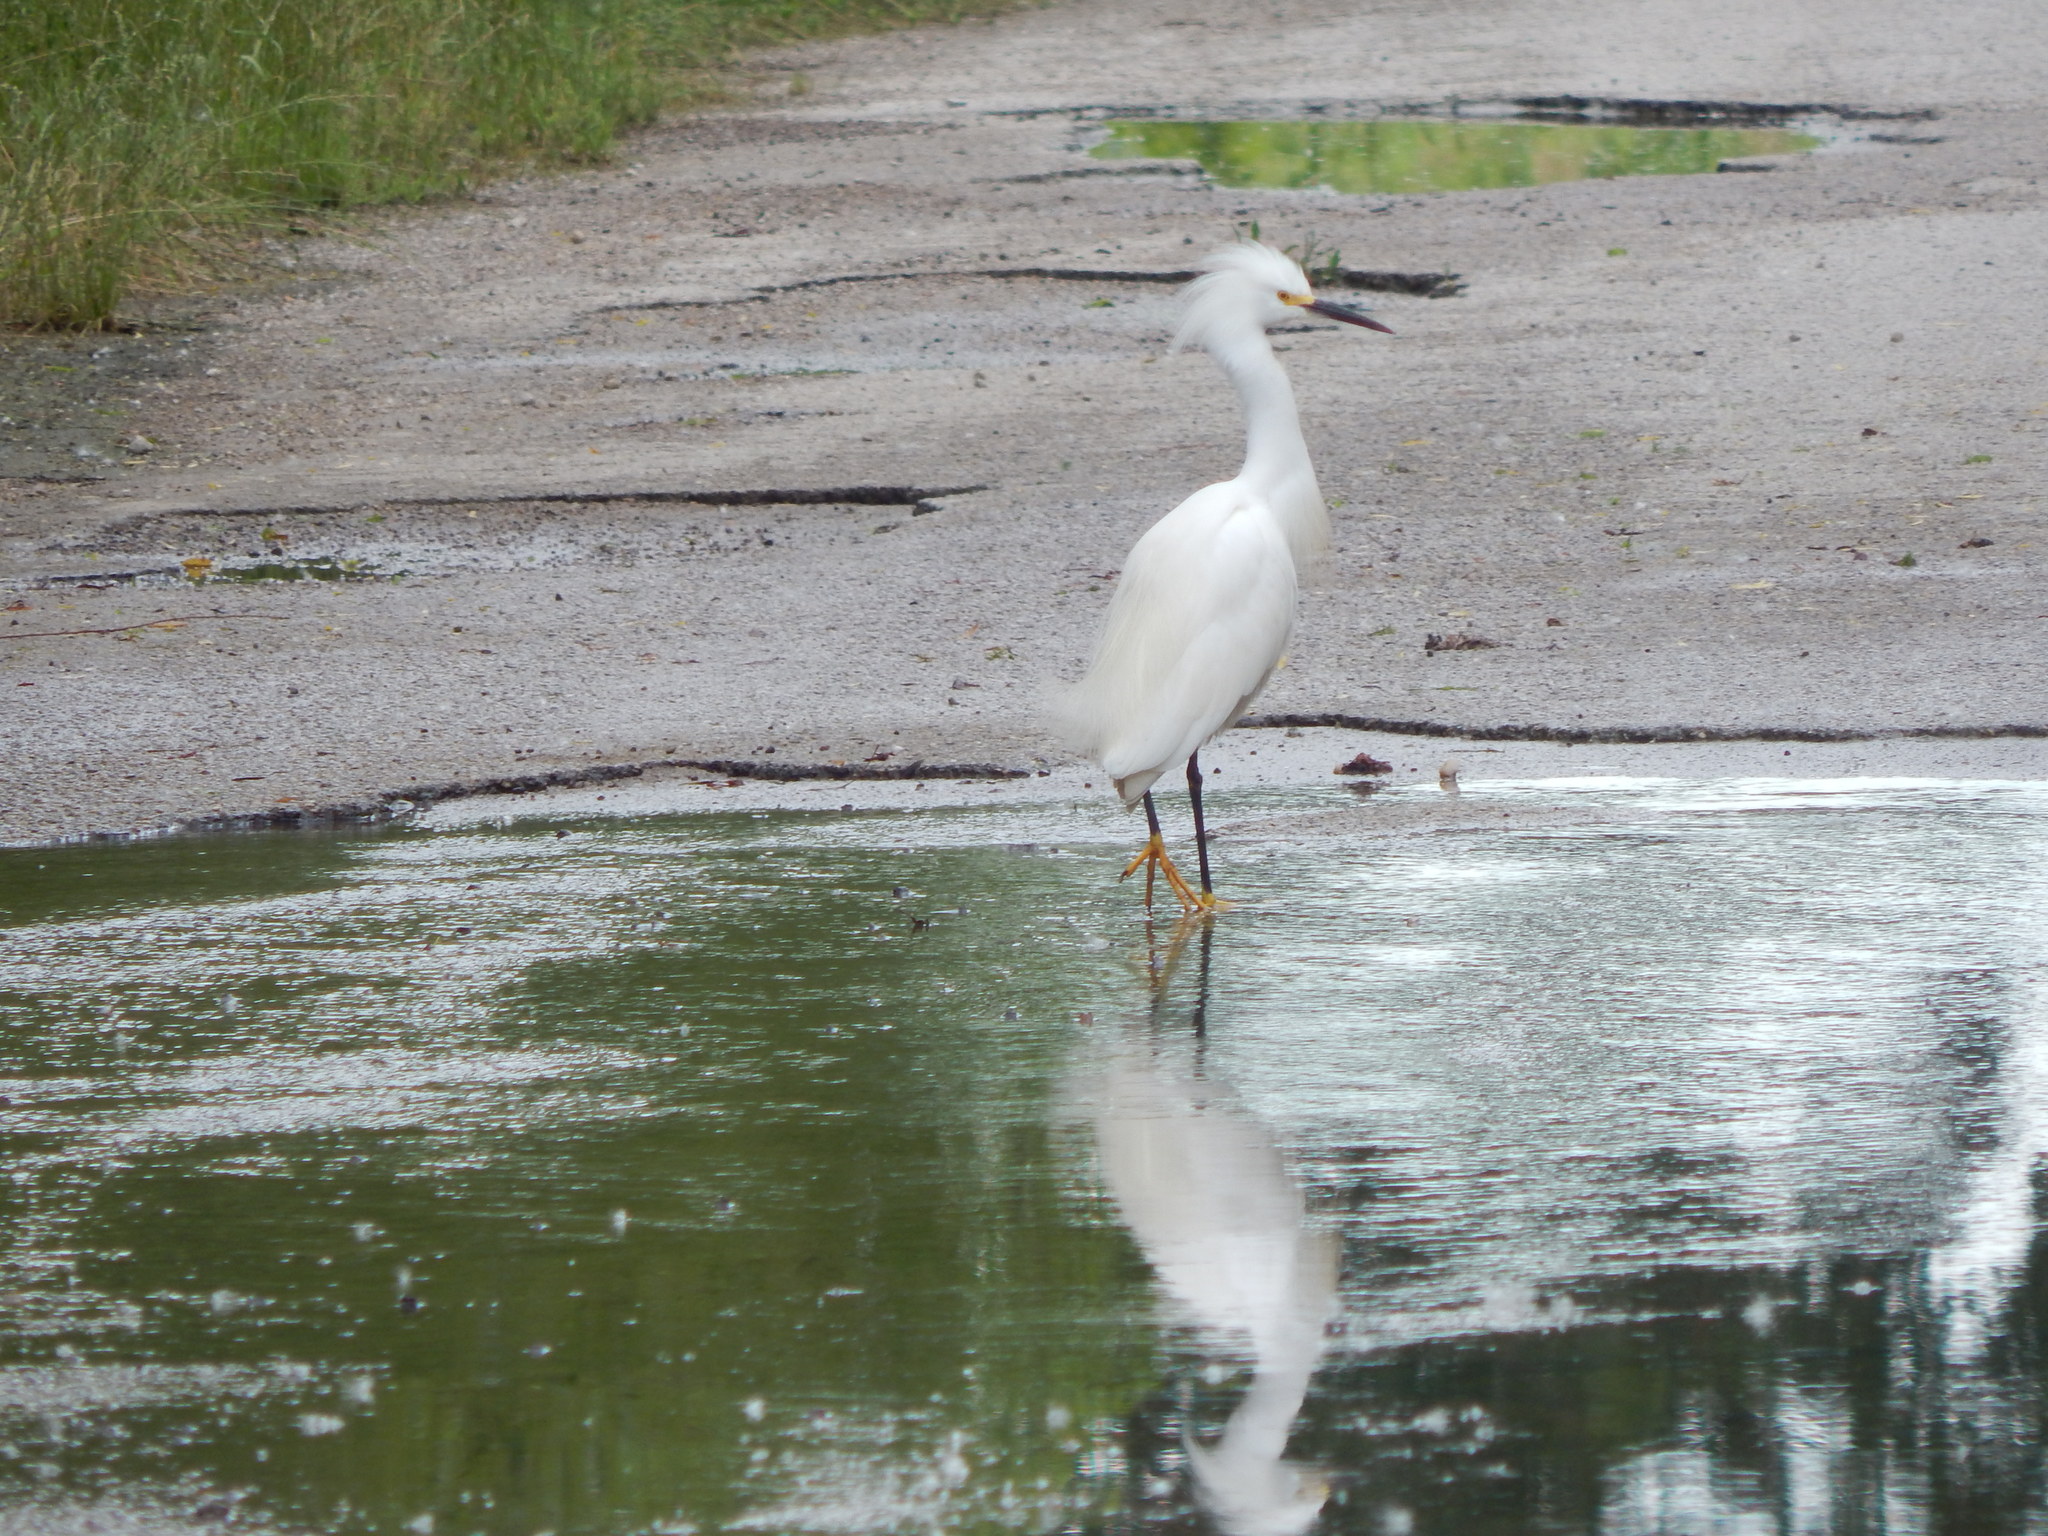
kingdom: Animalia
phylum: Chordata
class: Aves
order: Pelecaniformes
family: Ardeidae
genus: Egretta
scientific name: Egretta thula
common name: Snowy egret
